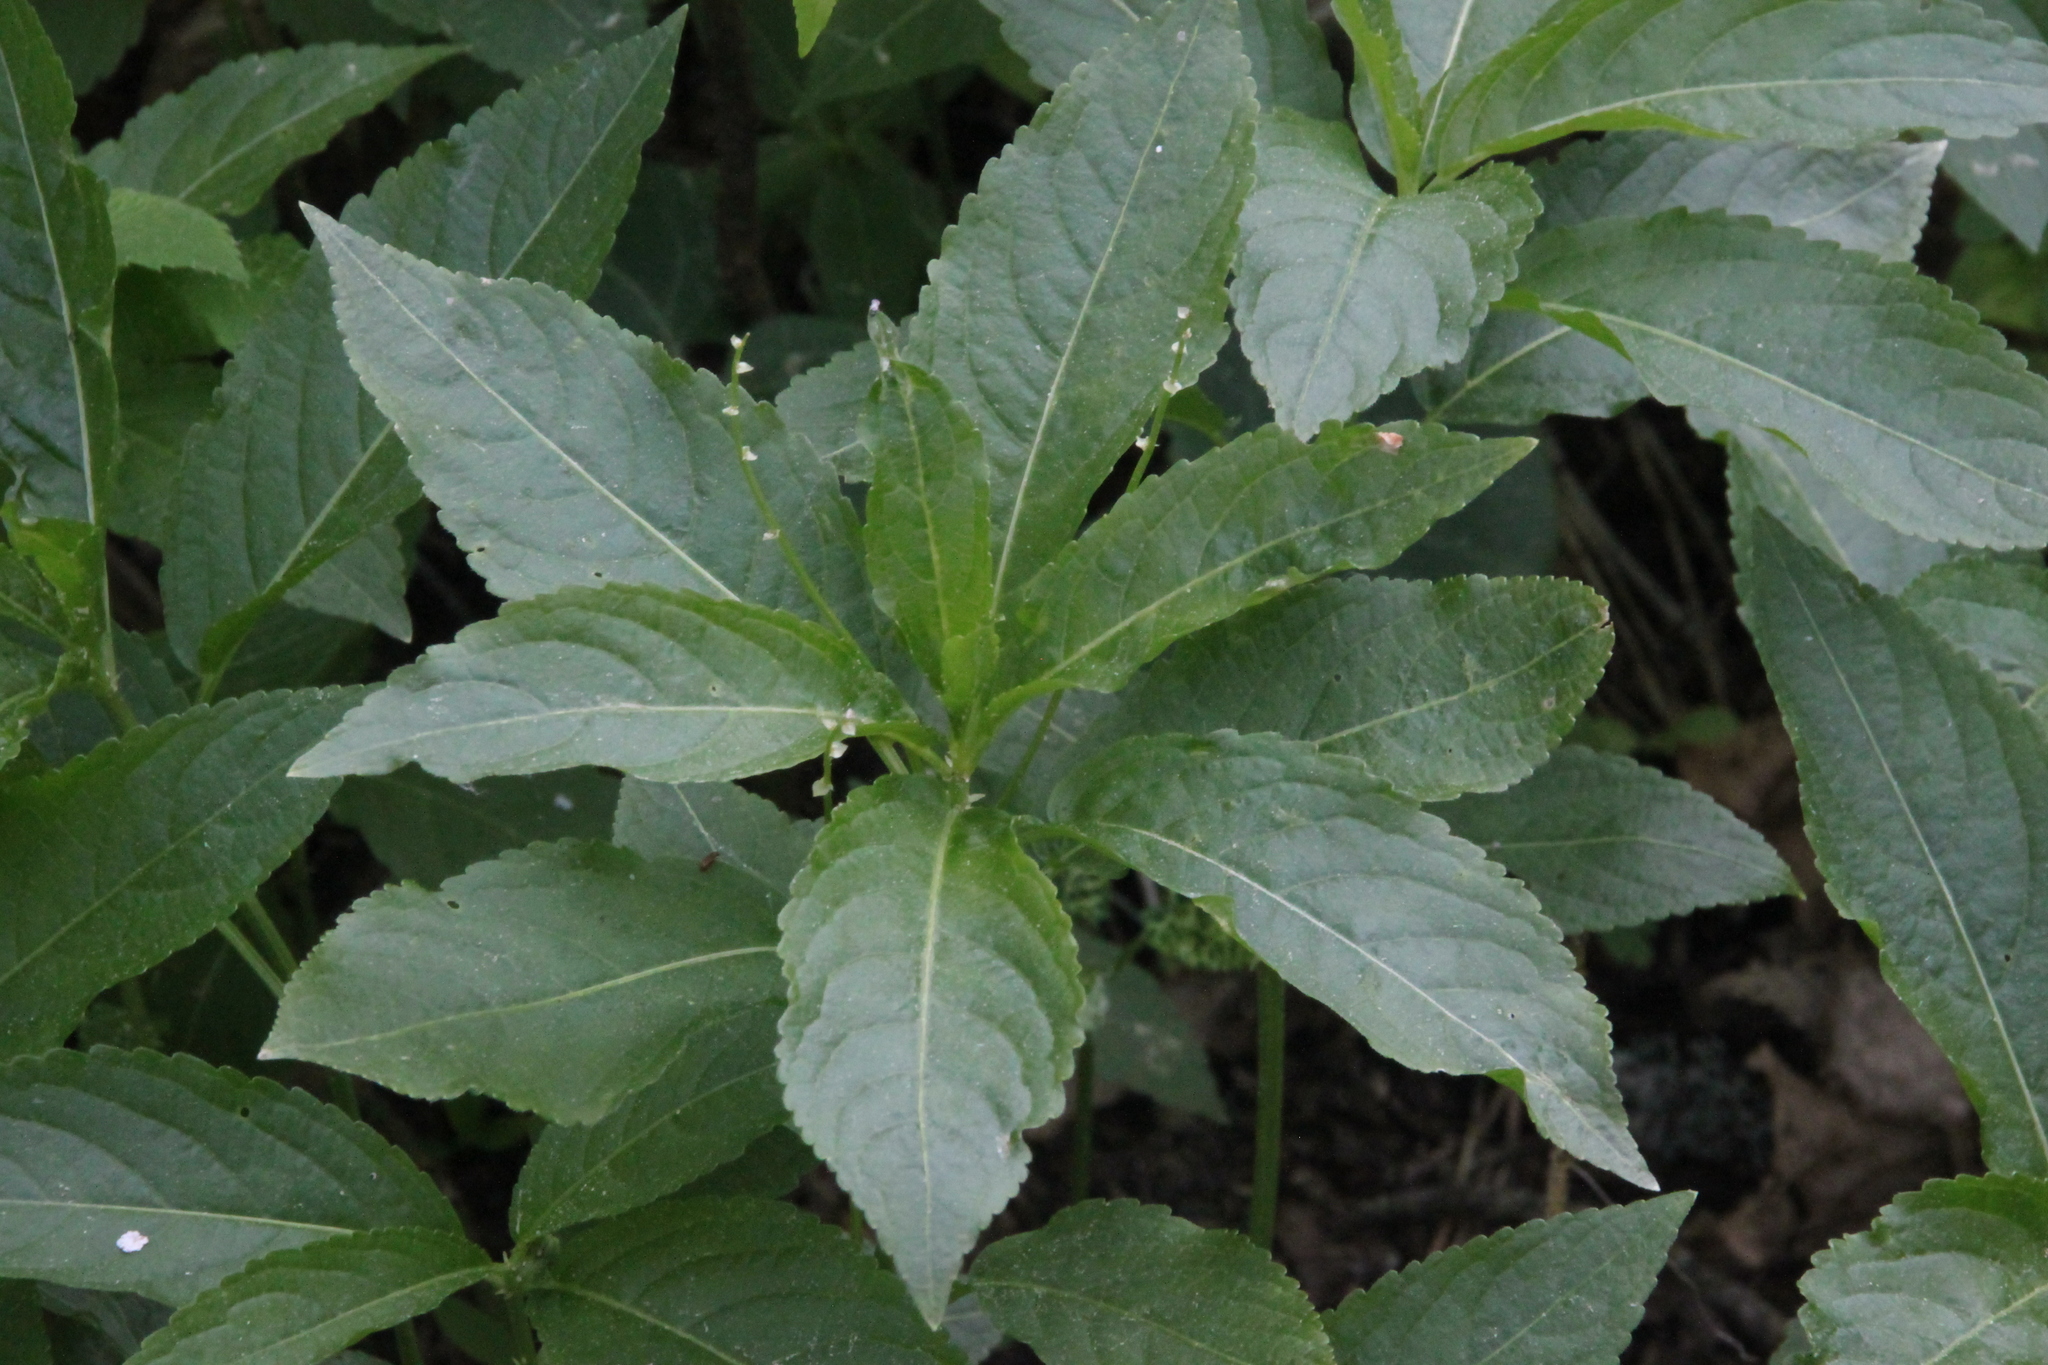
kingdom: Plantae
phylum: Tracheophyta
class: Magnoliopsida
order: Malpighiales
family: Euphorbiaceae
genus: Mercurialis
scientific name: Mercurialis perennis
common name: Dog mercury
